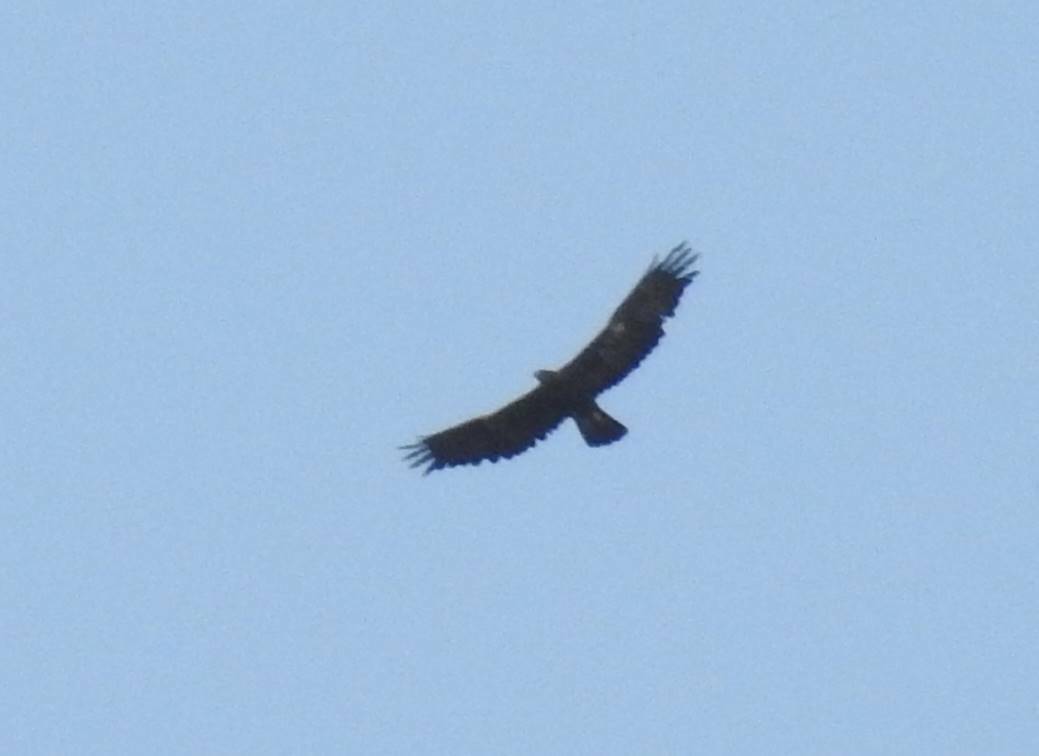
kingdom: Animalia
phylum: Chordata
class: Aves
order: Accipitriformes
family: Accipitridae
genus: Aquila
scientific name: Aquila chrysaetos
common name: Golden eagle
